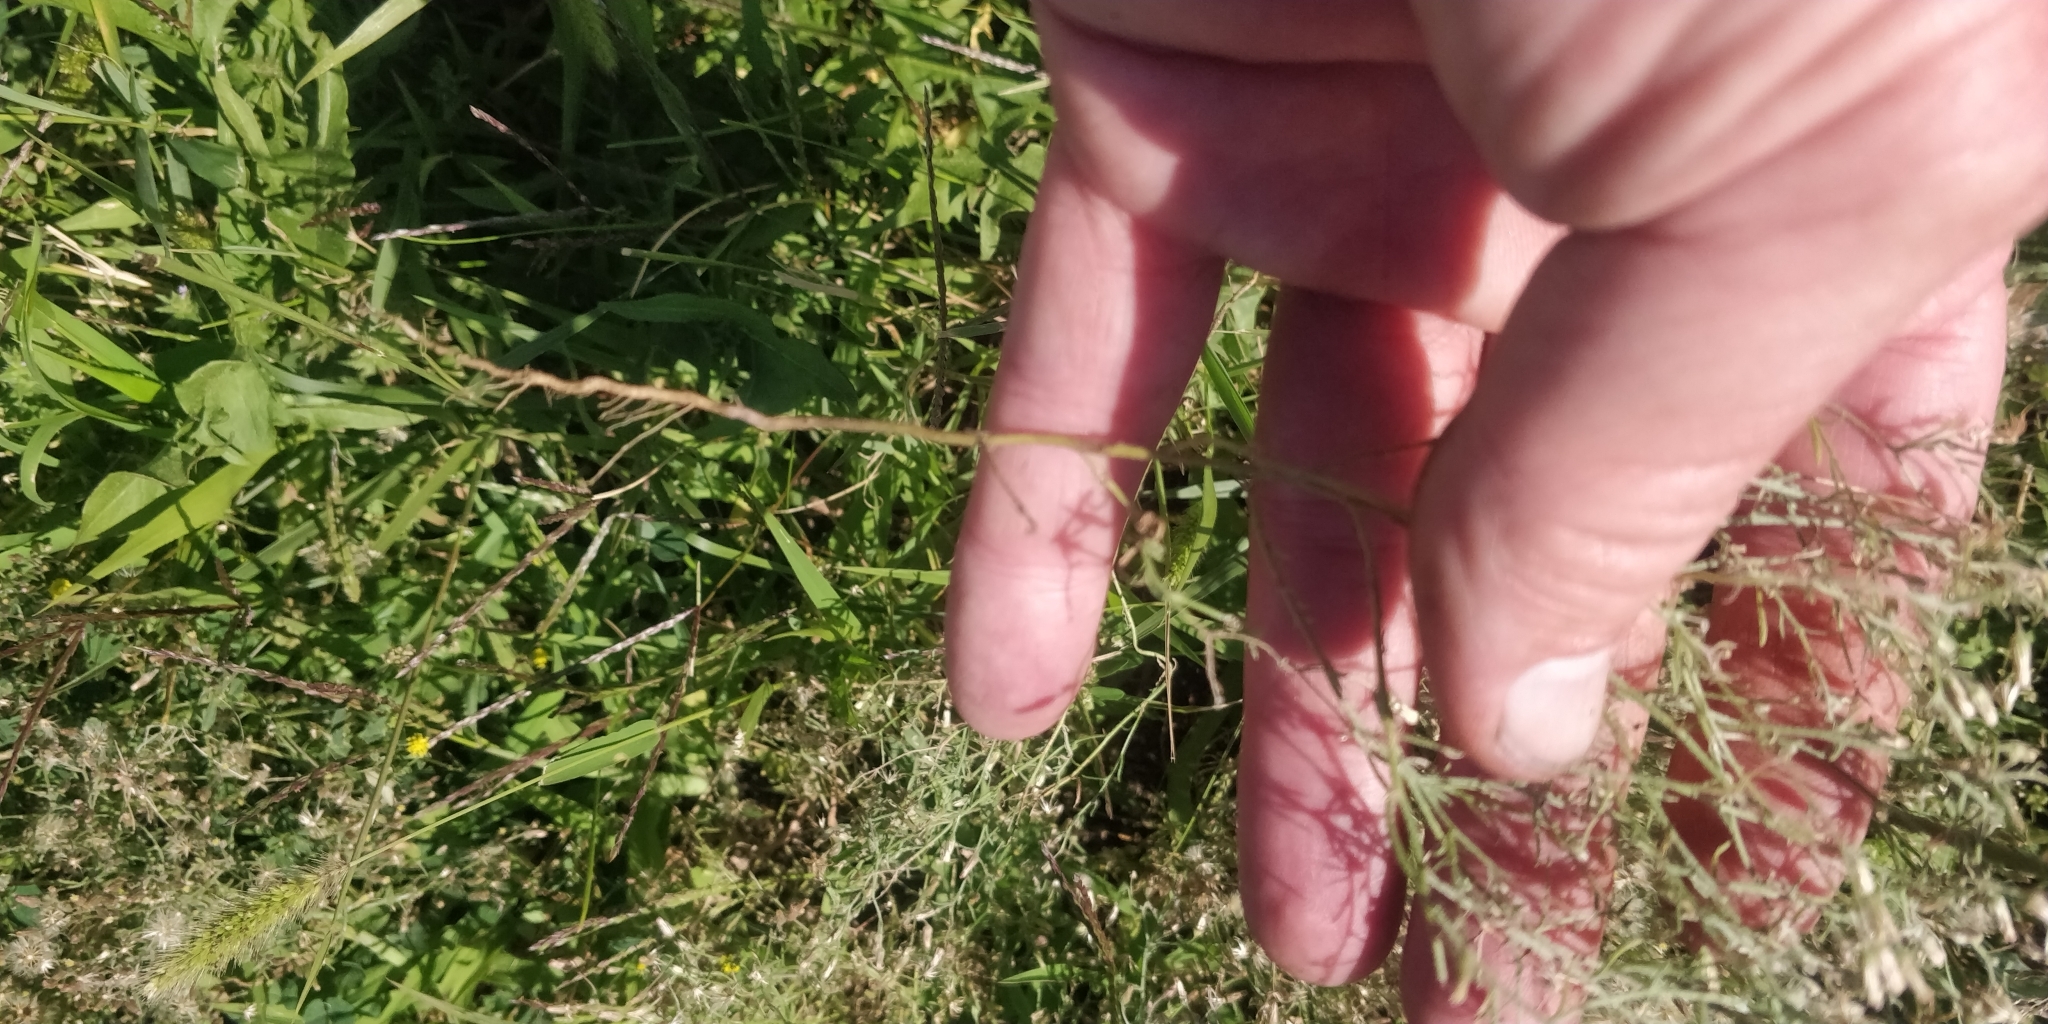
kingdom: Plantae
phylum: Tracheophyta
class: Magnoliopsida
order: Asterales
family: Asteraceae
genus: Erigeron
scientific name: Erigeron divaricatus
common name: Dwarf conyza
